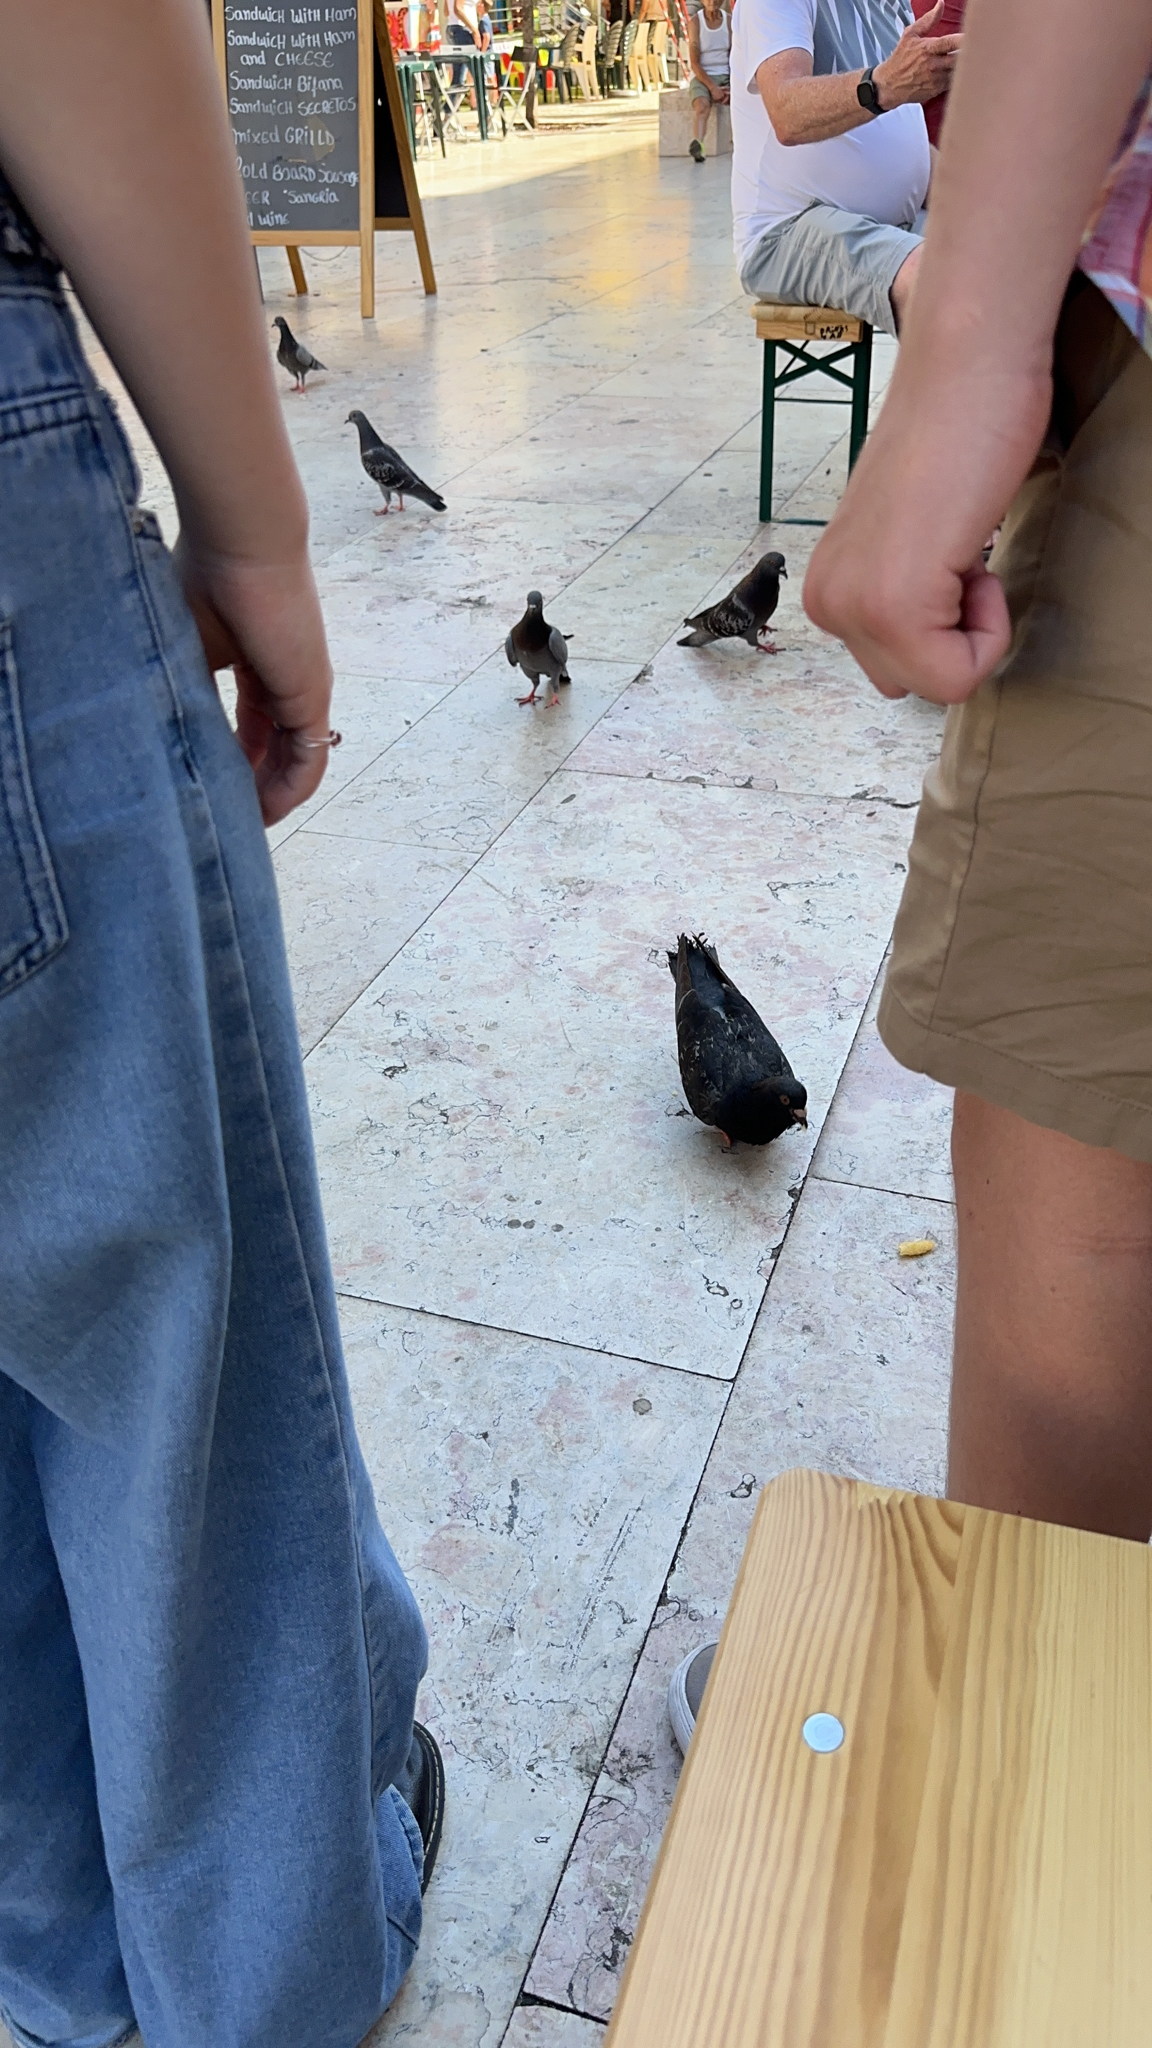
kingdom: Animalia
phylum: Chordata
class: Aves
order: Columbiformes
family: Columbidae
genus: Columba
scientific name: Columba livia
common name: Rock pigeon
